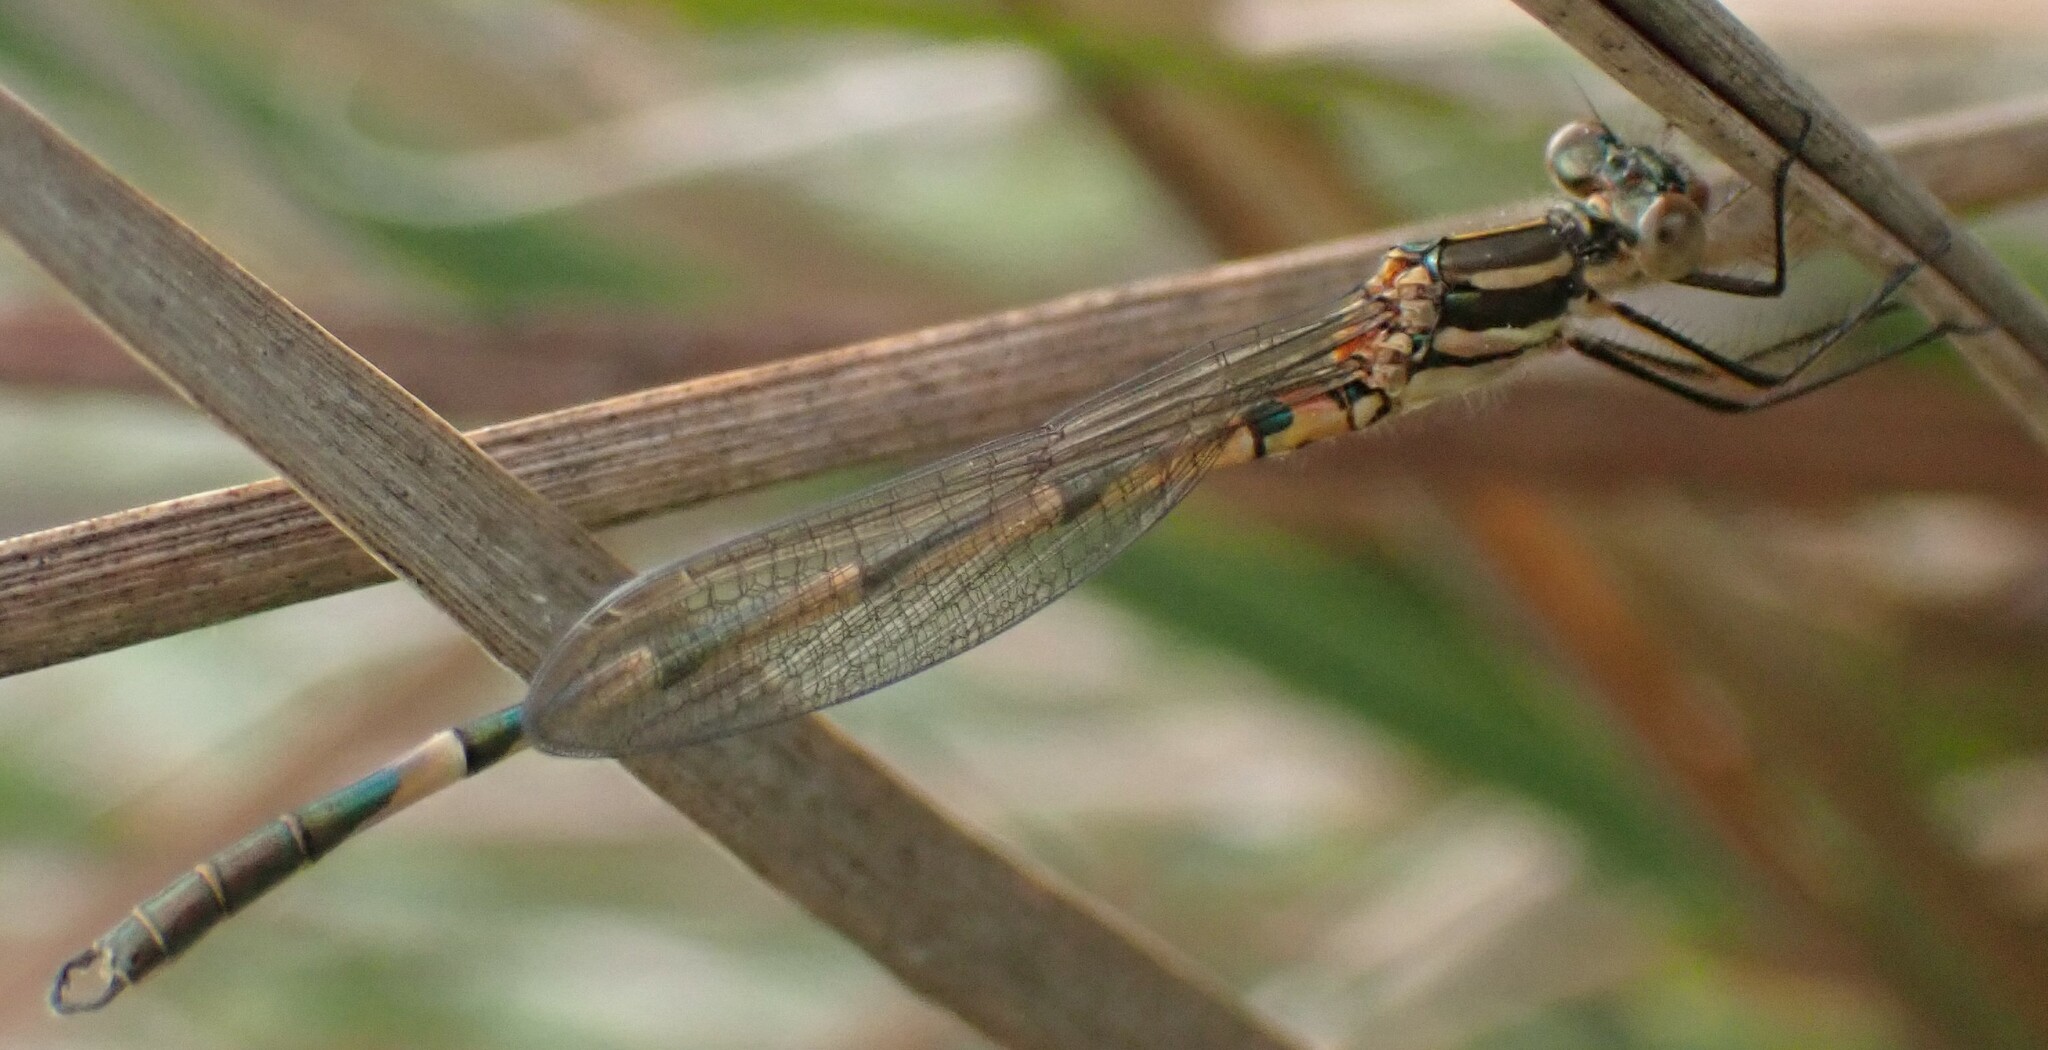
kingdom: Animalia
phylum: Arthropoda
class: Insecta
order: Odonata
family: Lestidae
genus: Austrolestes
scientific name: Austrolestes annulosus
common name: Blue ringtail
